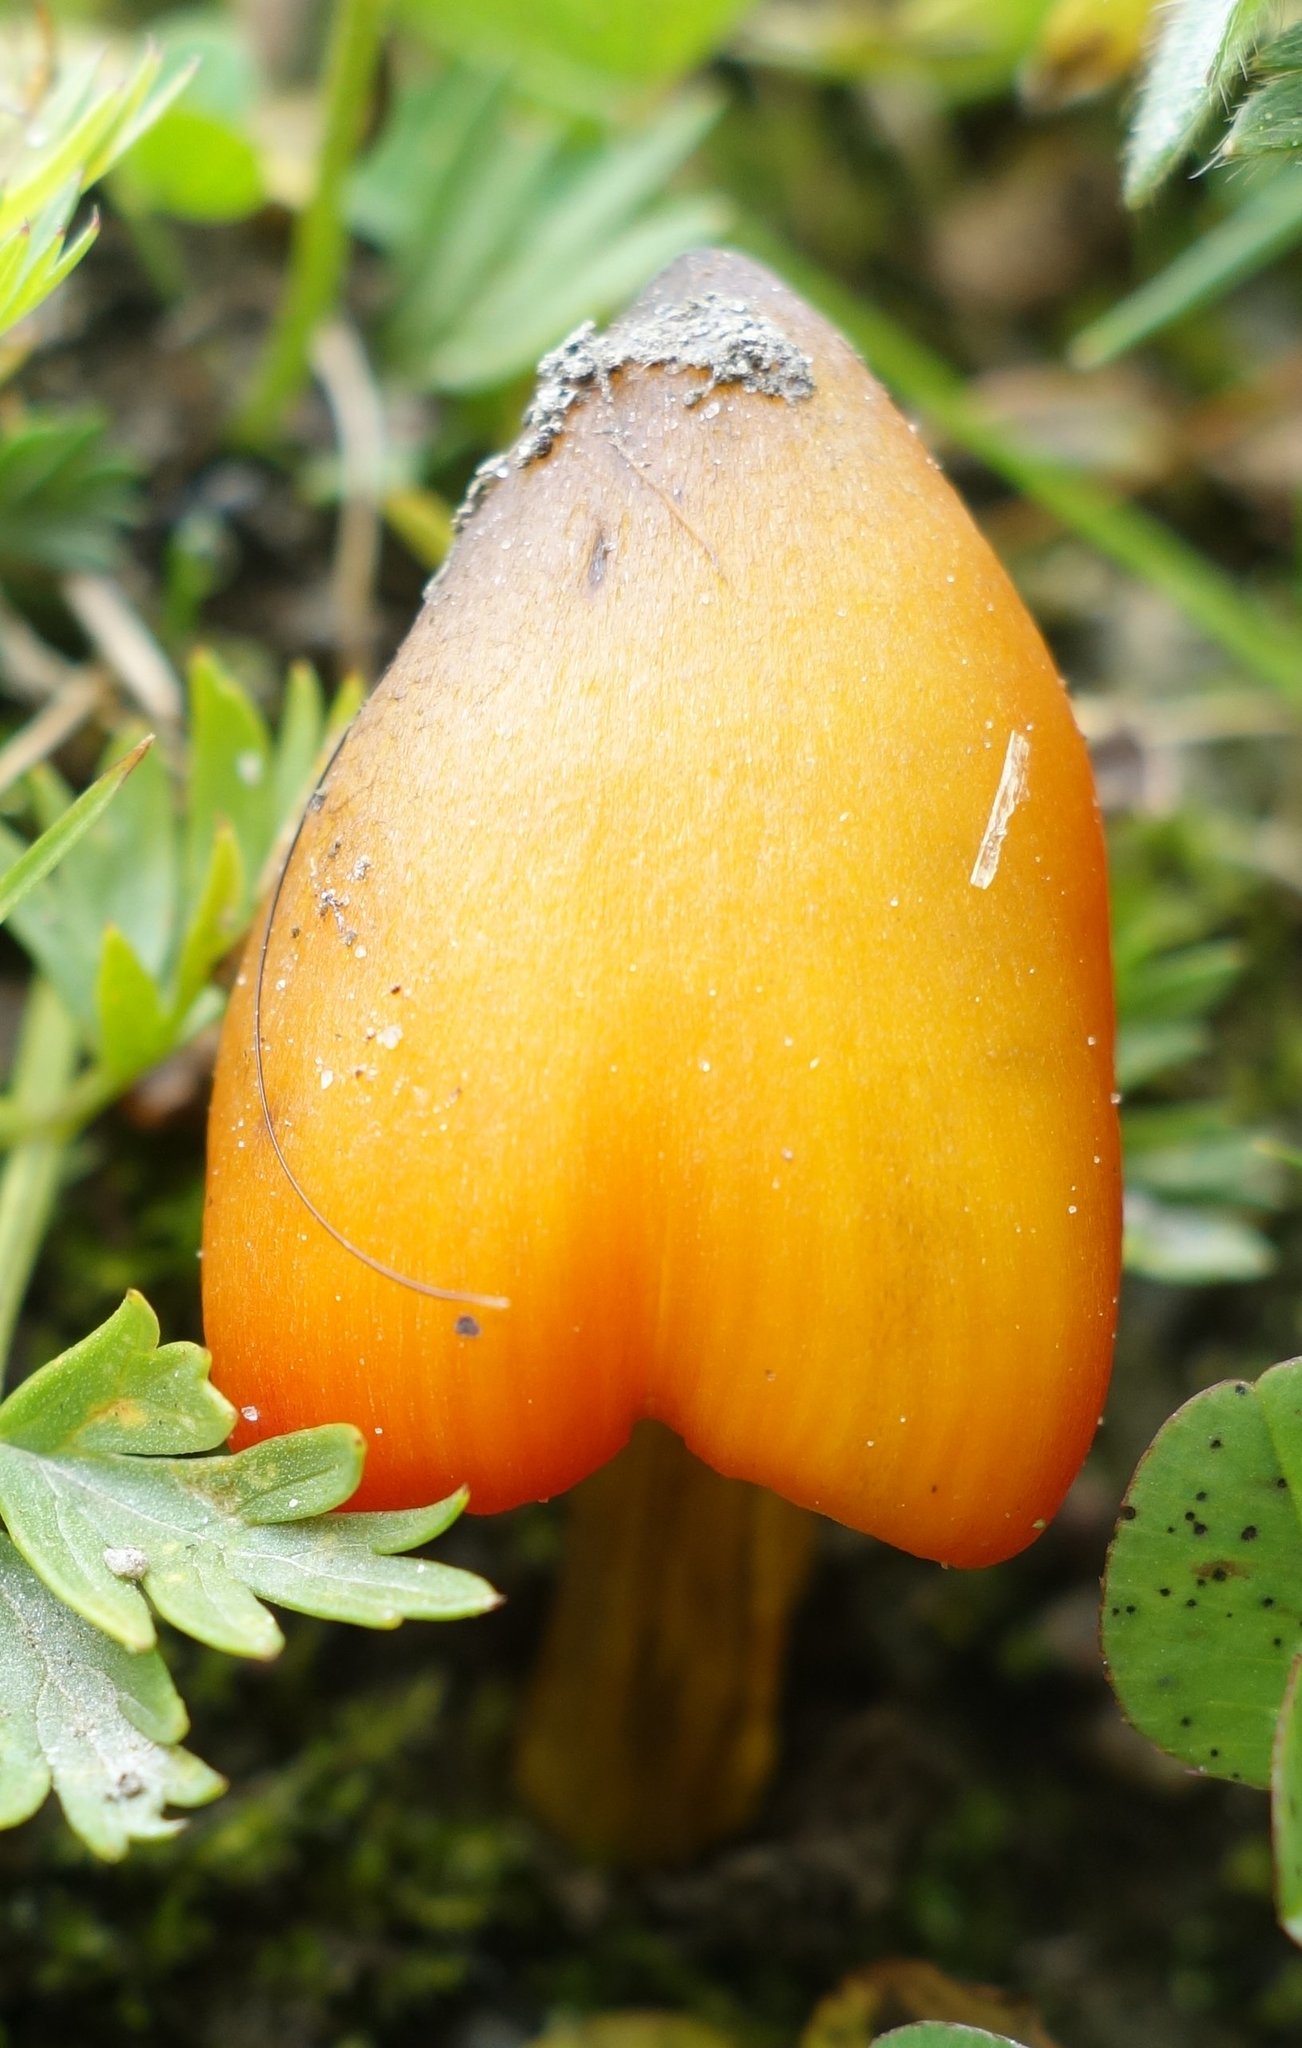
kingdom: Fungi
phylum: Basidiomycota
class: Agaricomycetes
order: Agaricales
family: Hygrophoraceae
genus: Hygrocybe
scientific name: Hygrocybe conica
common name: Blackening wax-cap
